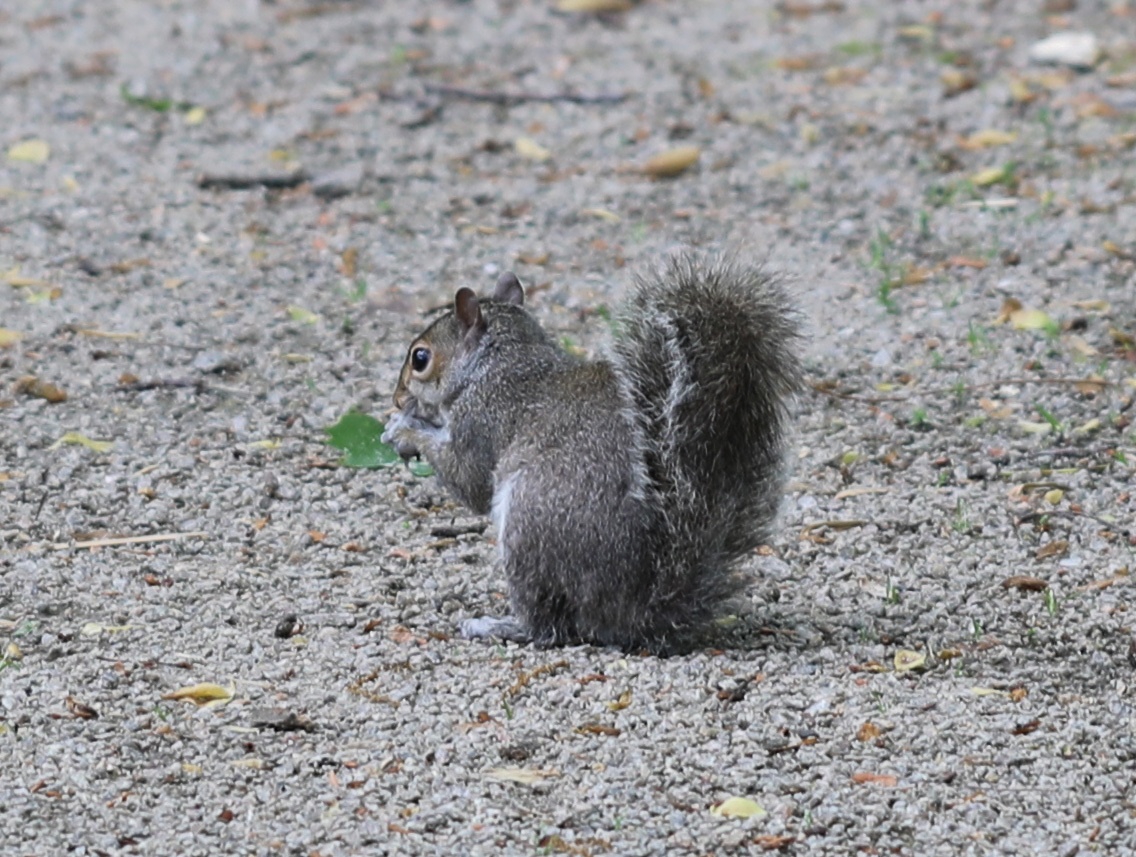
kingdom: Animalia
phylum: Chordata
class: Mammalia
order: Rodentia
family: Sciuridae
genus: Sciurus
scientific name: Sciurus carolinensis
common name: Eastern gray squirrel
